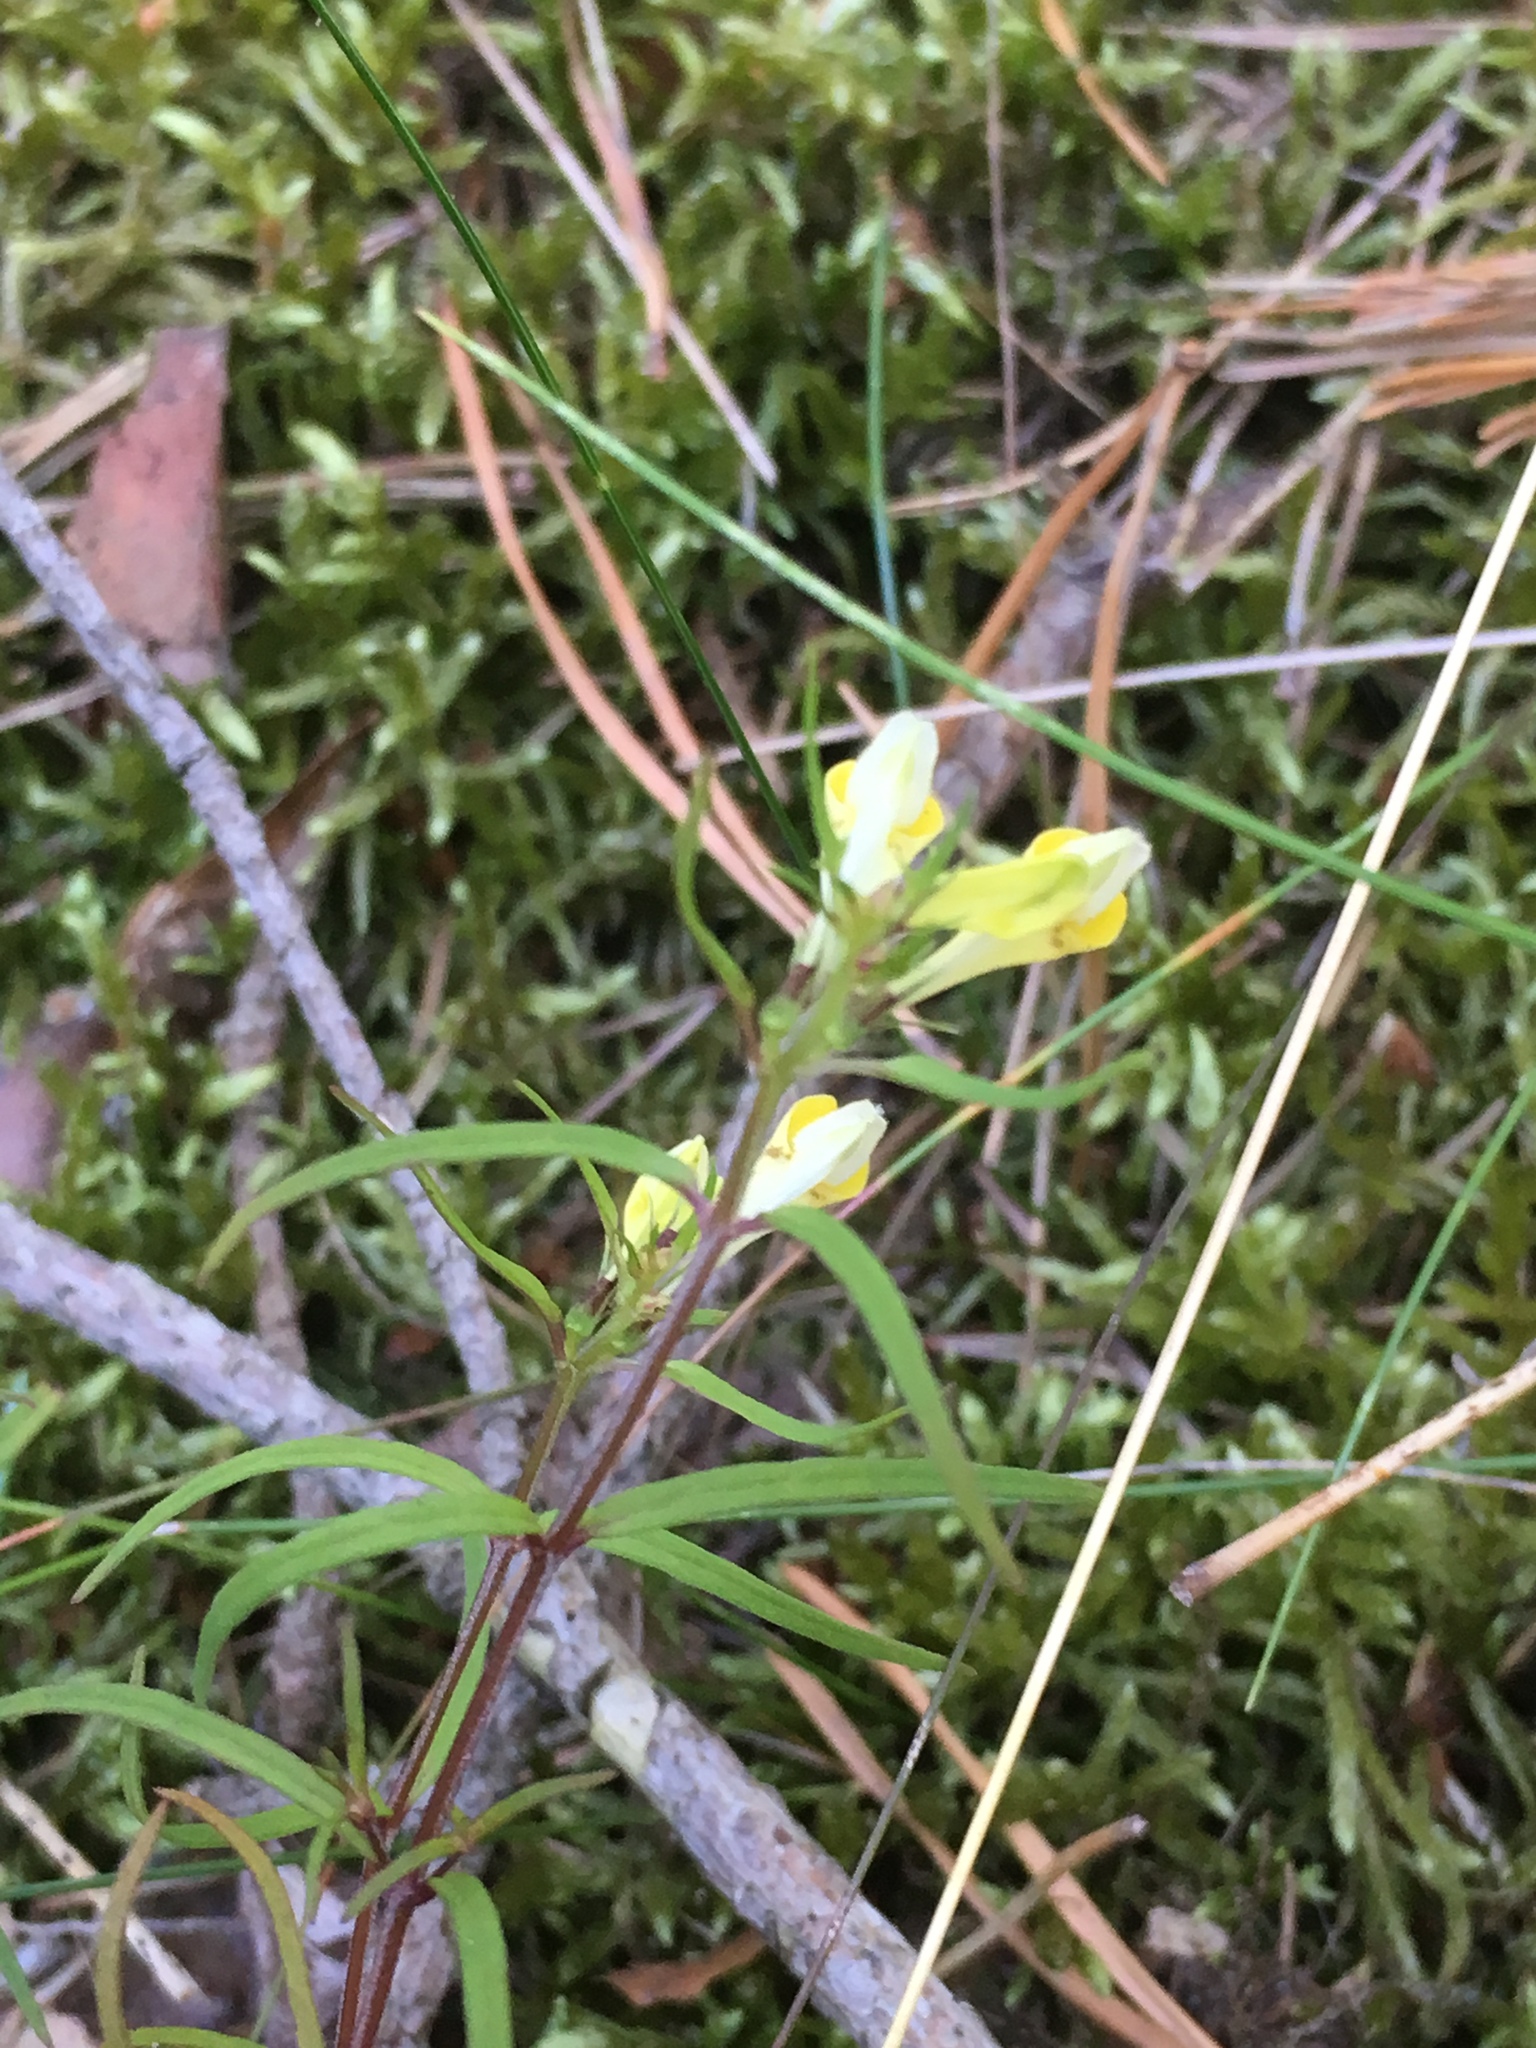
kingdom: Plantae
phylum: Tracheophyta
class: Magnoliopsida
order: Lamiales
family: Orobanchaceae
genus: Melampyrum
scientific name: Melampyrum pratense
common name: Common cow-wheat
